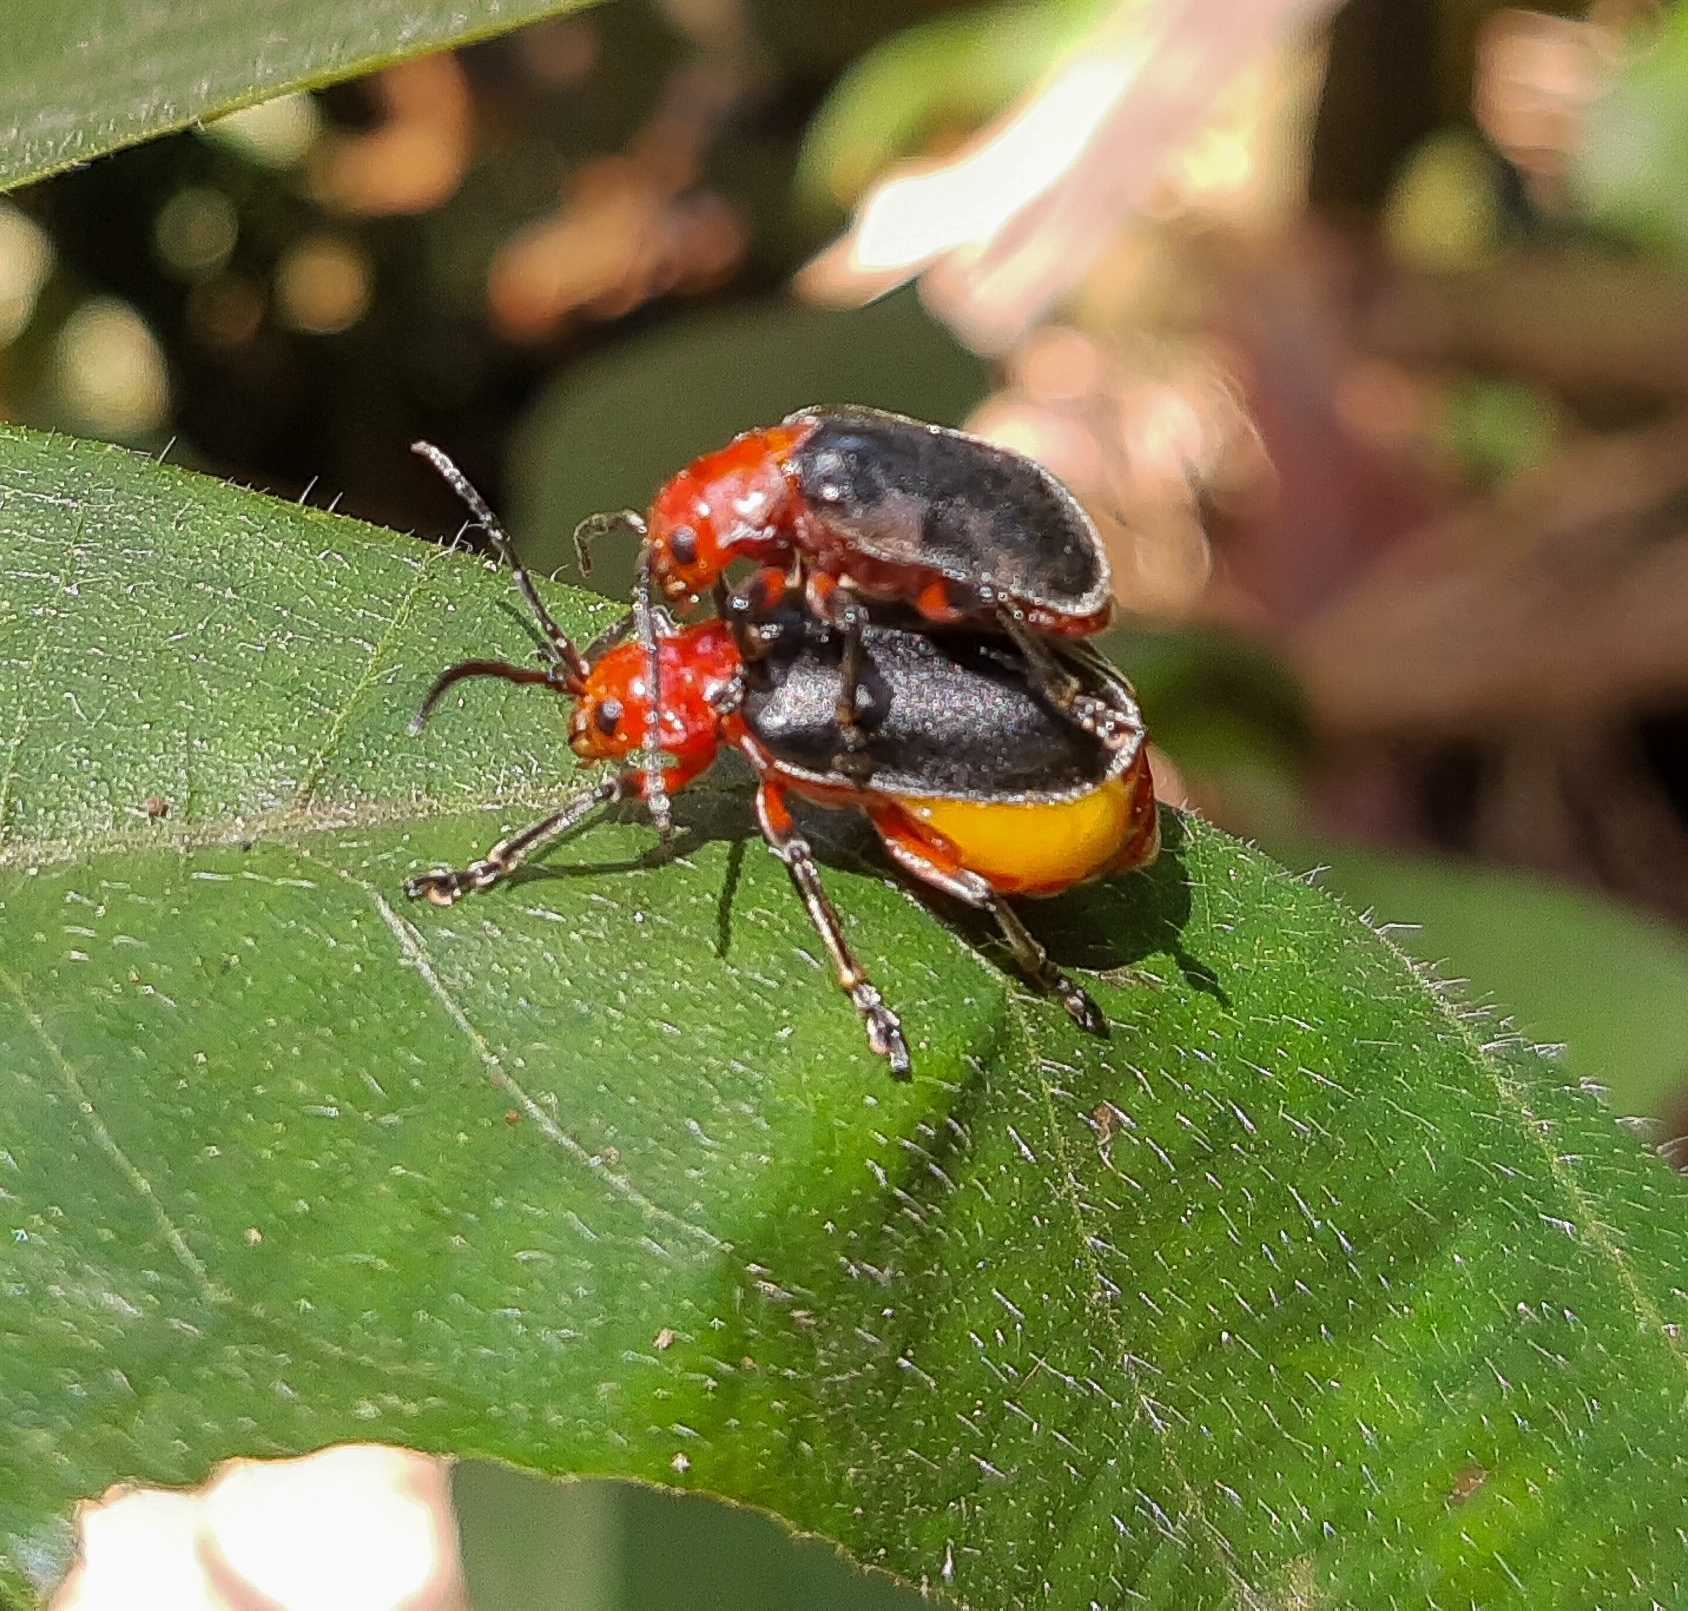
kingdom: Animalia
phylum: Arthropoda
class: Insecta
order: Coleoptera
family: Chrysomelidae
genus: Coelomera
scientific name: Coelomera
